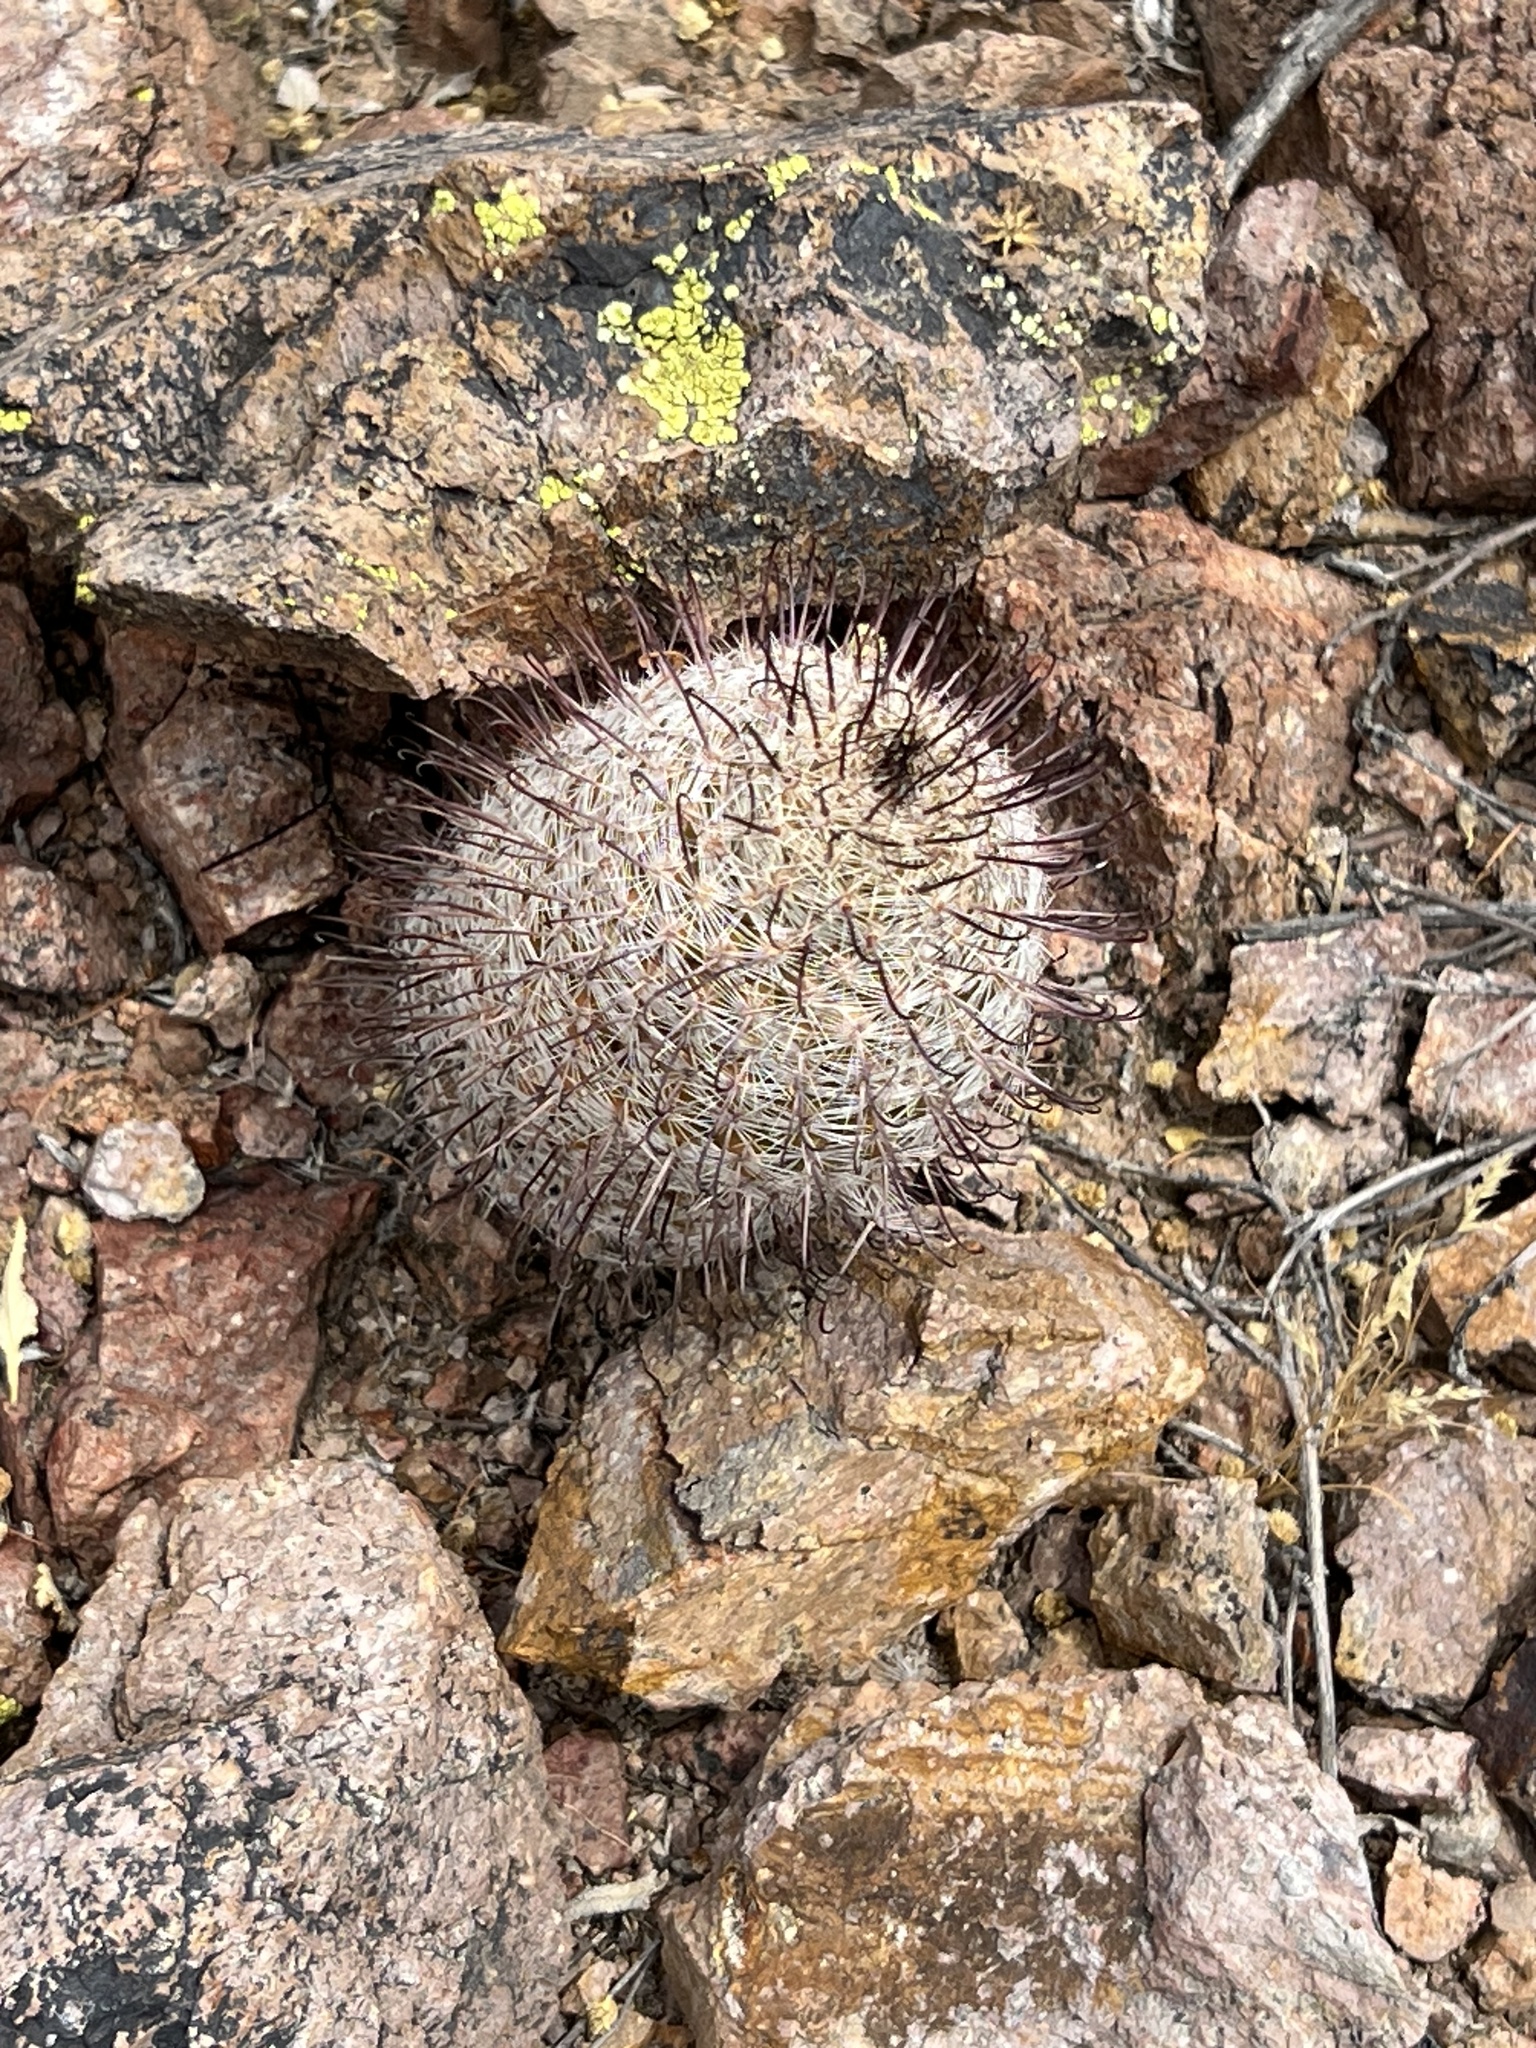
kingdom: Plantae
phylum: Tracheophyta
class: Magnoliopsida
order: Caryophyllales
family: Cactaceae
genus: Cochemiea
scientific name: Cochemiea grahamii
